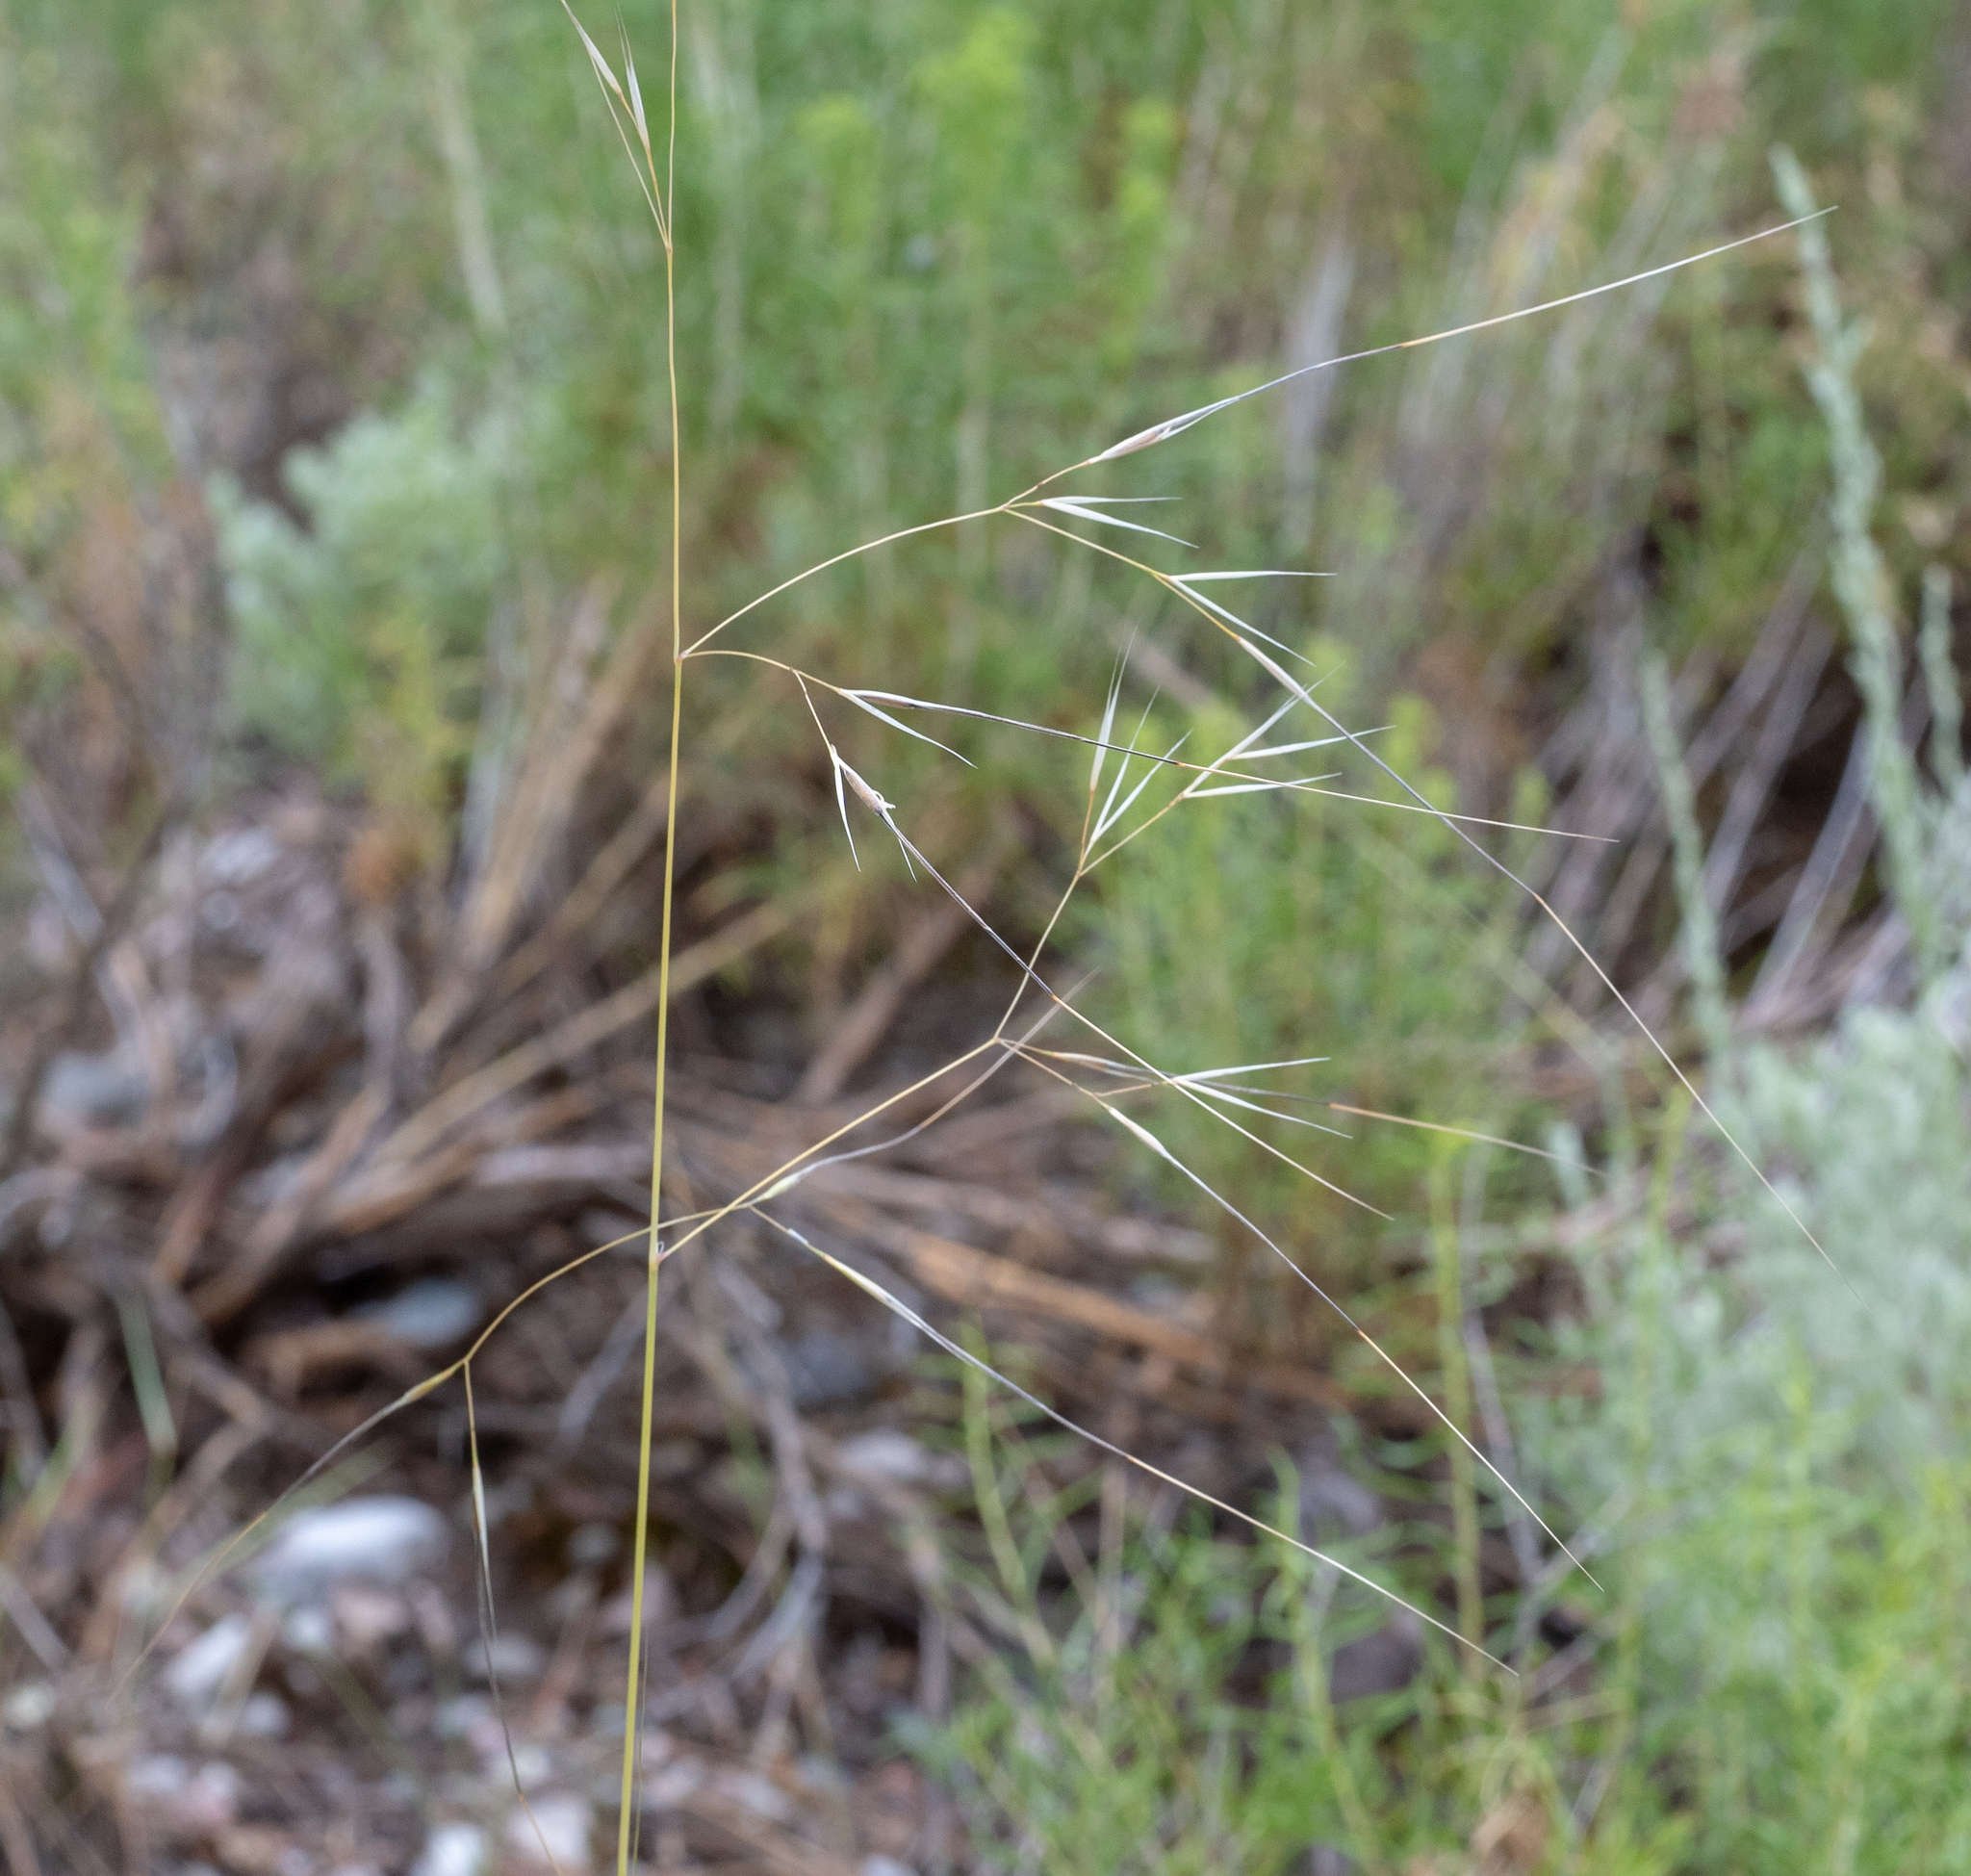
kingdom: Plantae
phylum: Tracheophyta
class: Liliopsida
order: Poales
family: Poaceae
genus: Hesperostipa
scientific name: Hesperostipa comata
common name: Needle-and-thread grass
